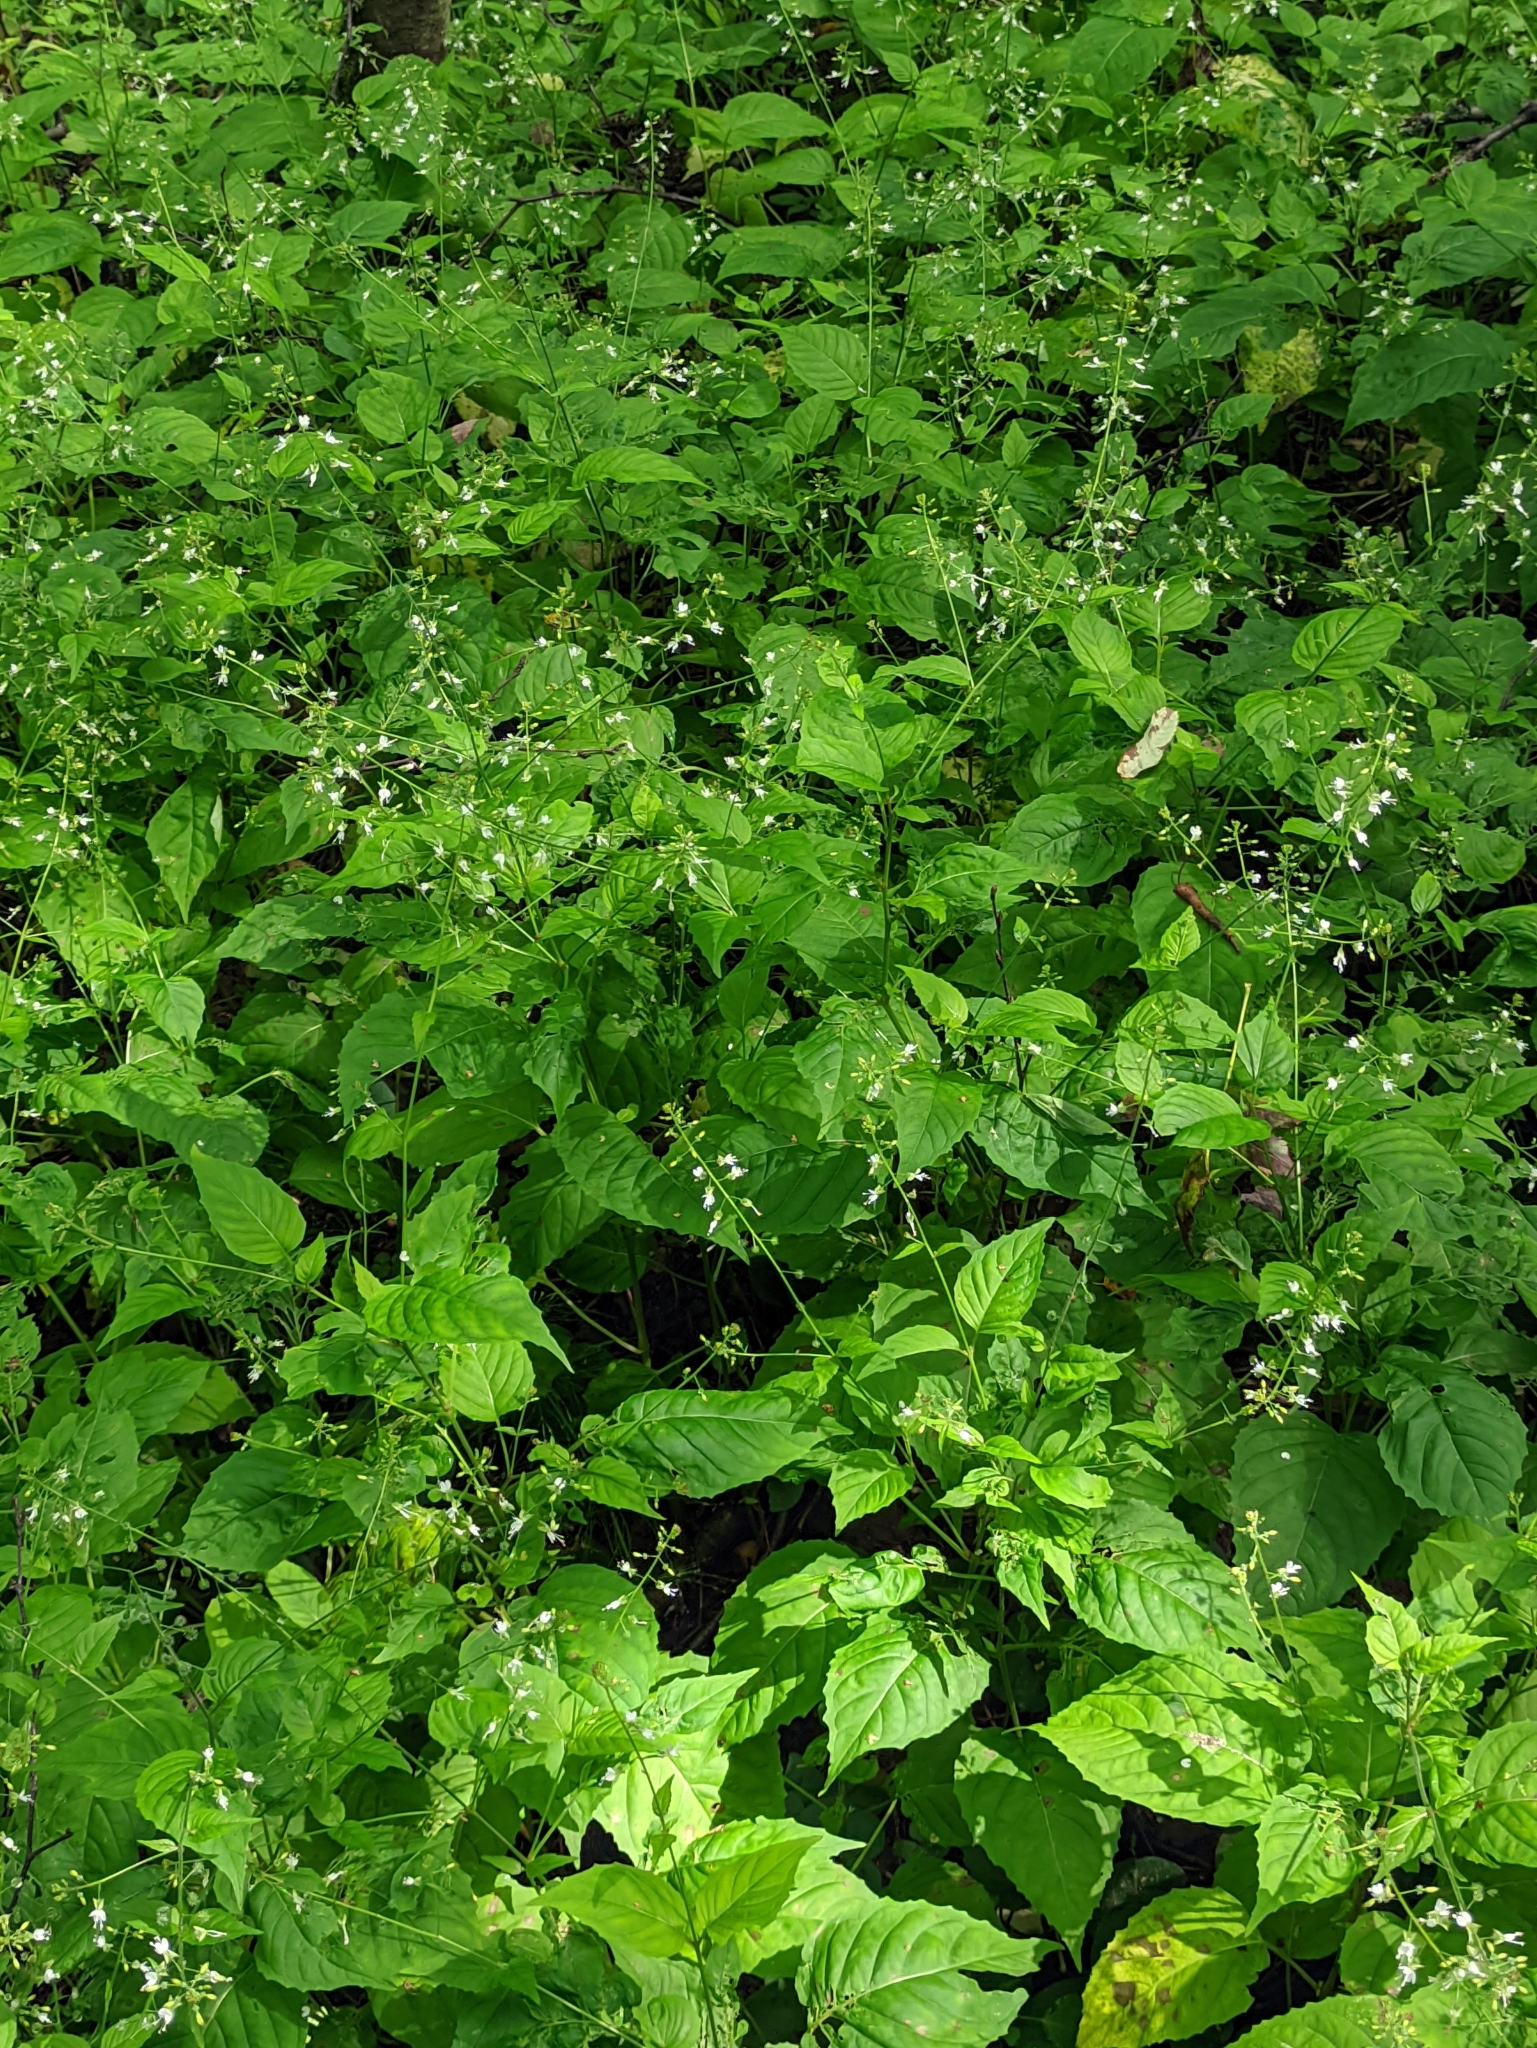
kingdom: Plantae
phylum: Tracheophyta
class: Magnoliopsida
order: Myrtales
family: Onagraceae
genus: Circaea
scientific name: Circaea lutetiana
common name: Enchanter's-nightshade
